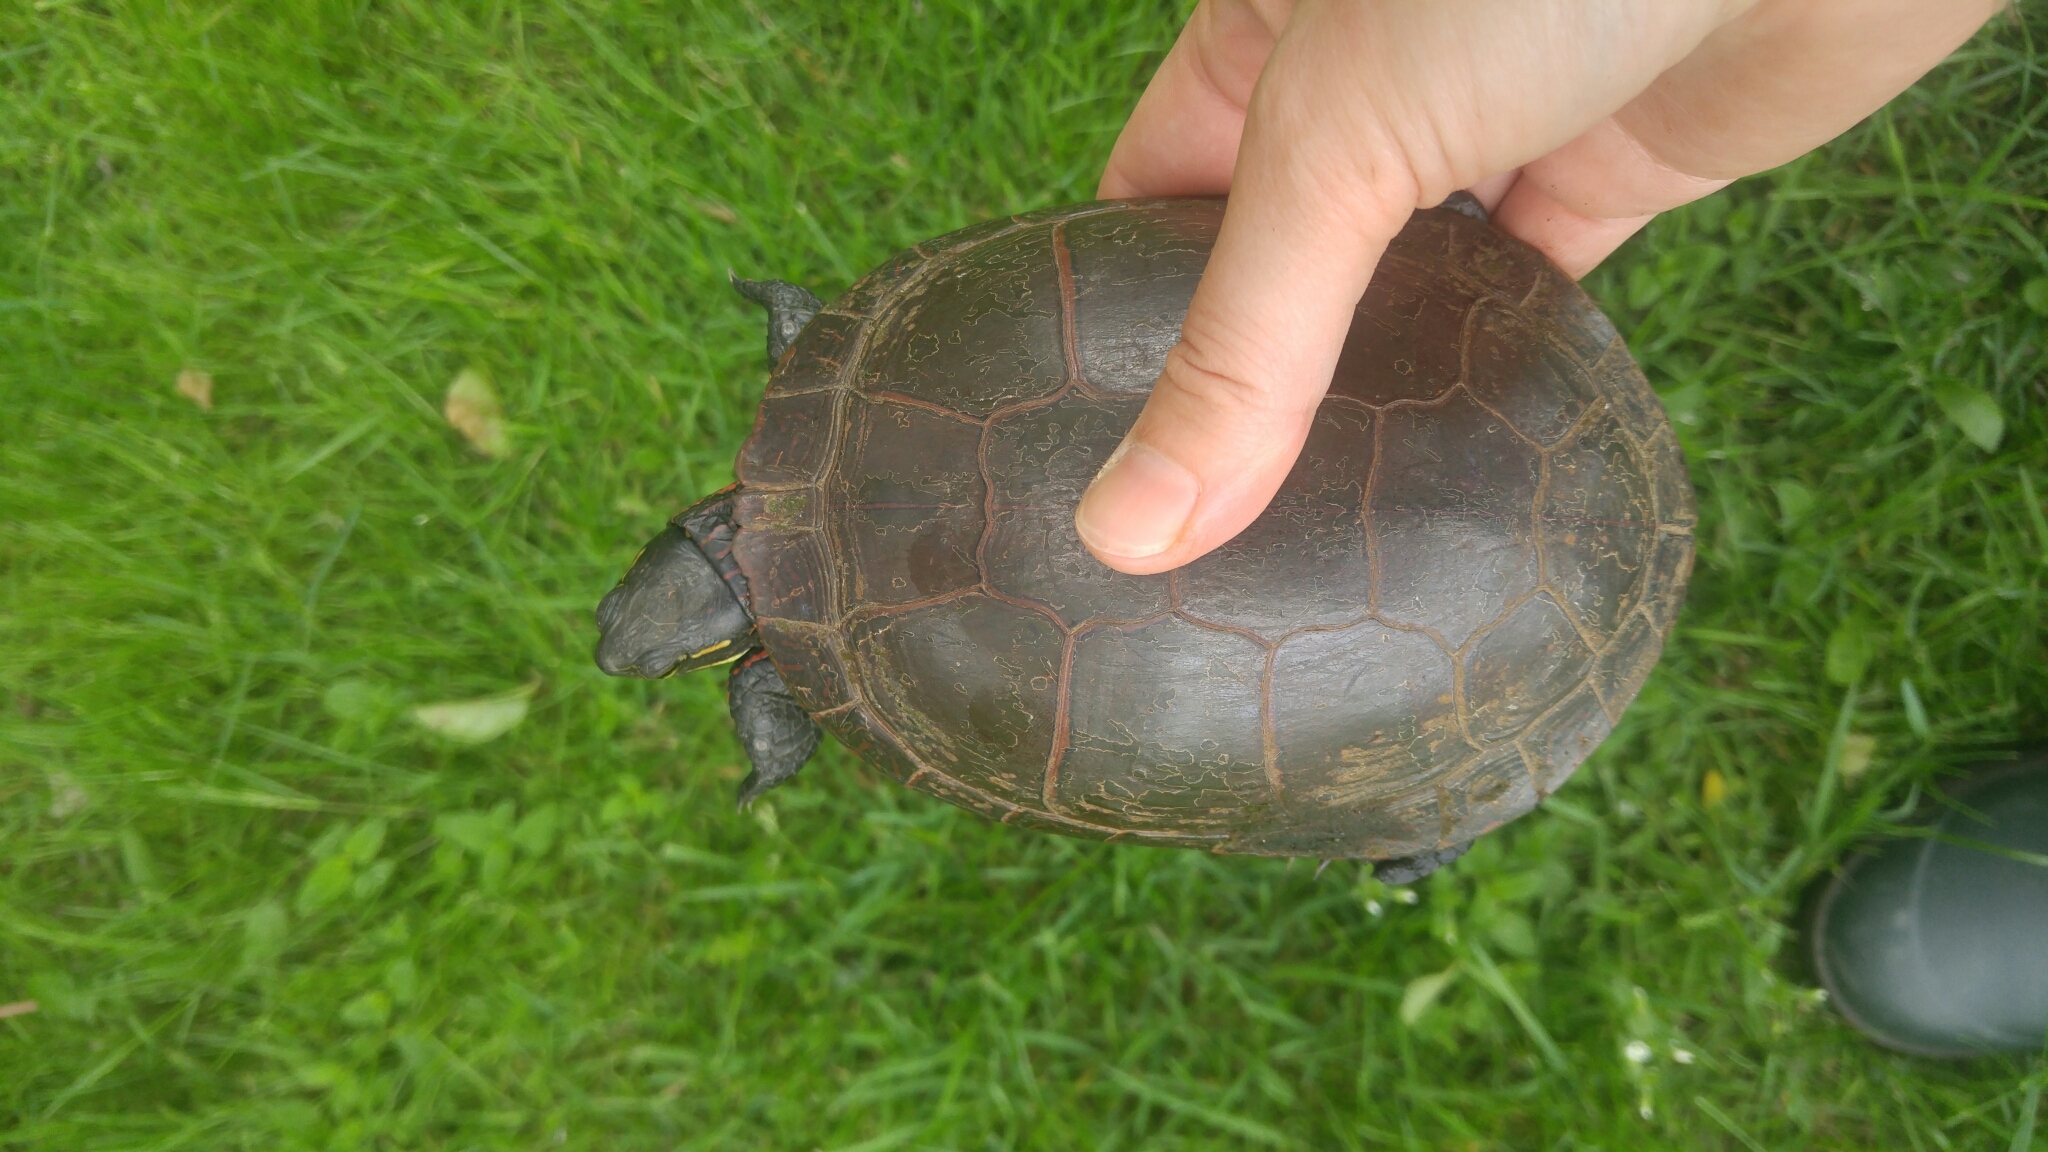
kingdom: Animalia
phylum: Chordata
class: Testudines
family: Emydidae
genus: Chrysemys
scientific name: Chrysemys picta
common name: Painted turtle
